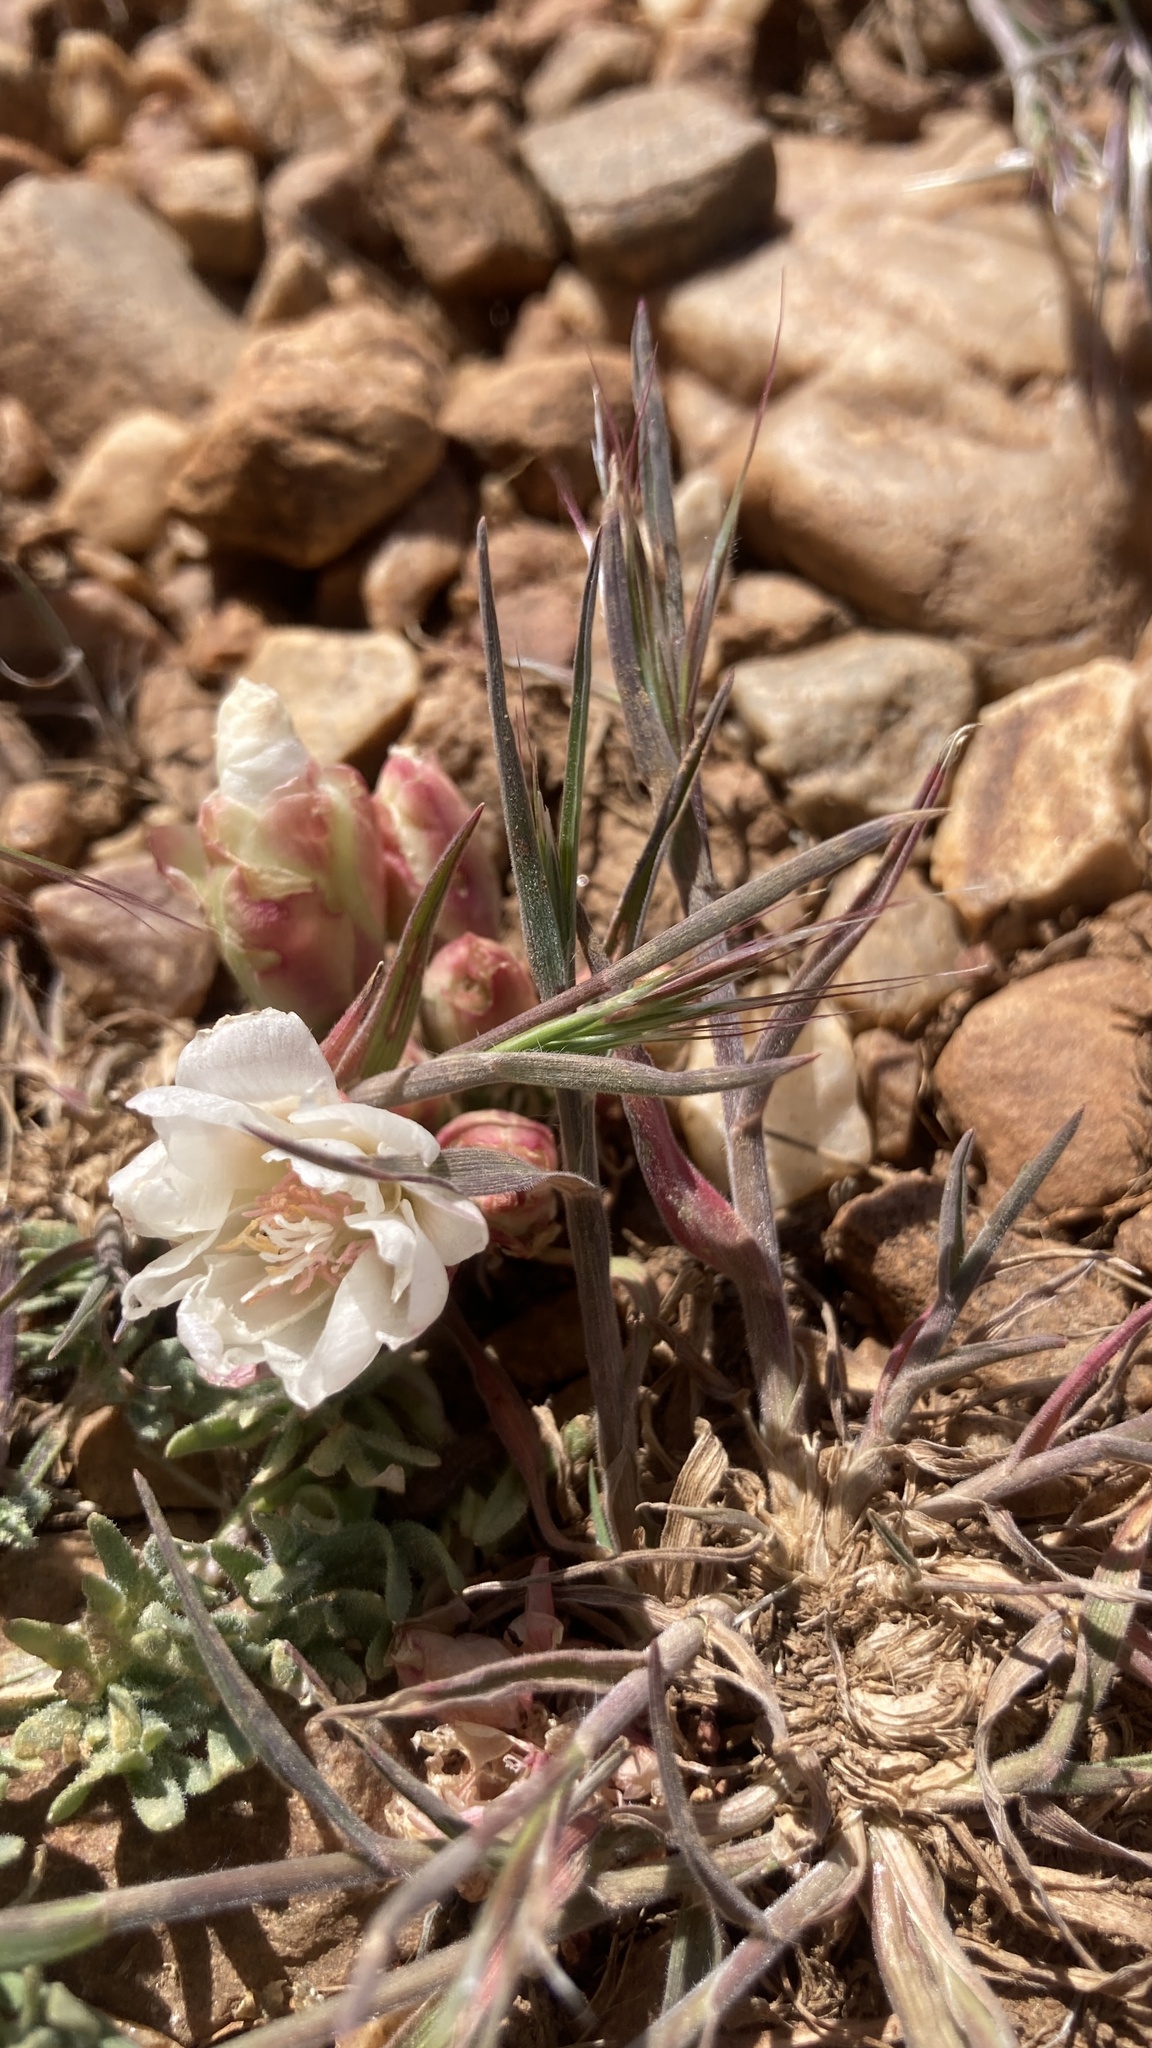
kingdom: Plantae
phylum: Tracheophyta
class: Magnoliopsida
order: Caryophyllales
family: Montiaceae
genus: Lewisia
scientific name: Lewisia rediviva
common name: Bitter-root
